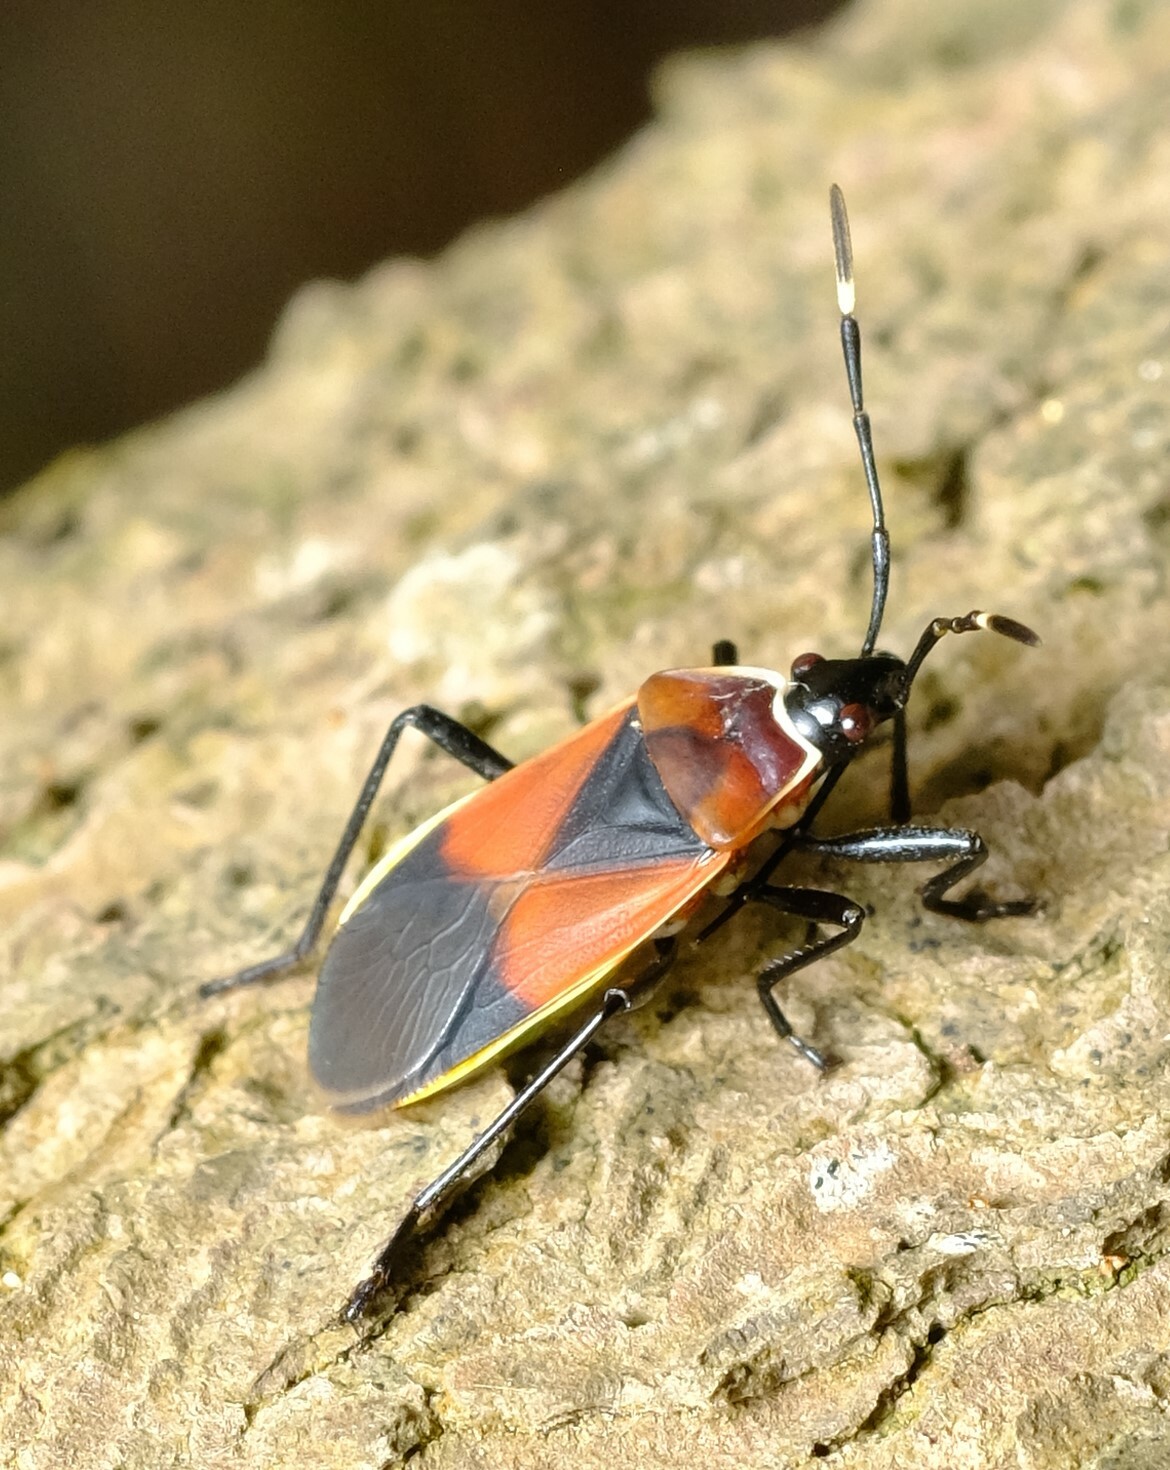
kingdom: Animalia
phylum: Arthropoda
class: Insecta
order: Hemiptera
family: Pyrrhocoridae
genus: Dindymus
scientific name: Dindymus
